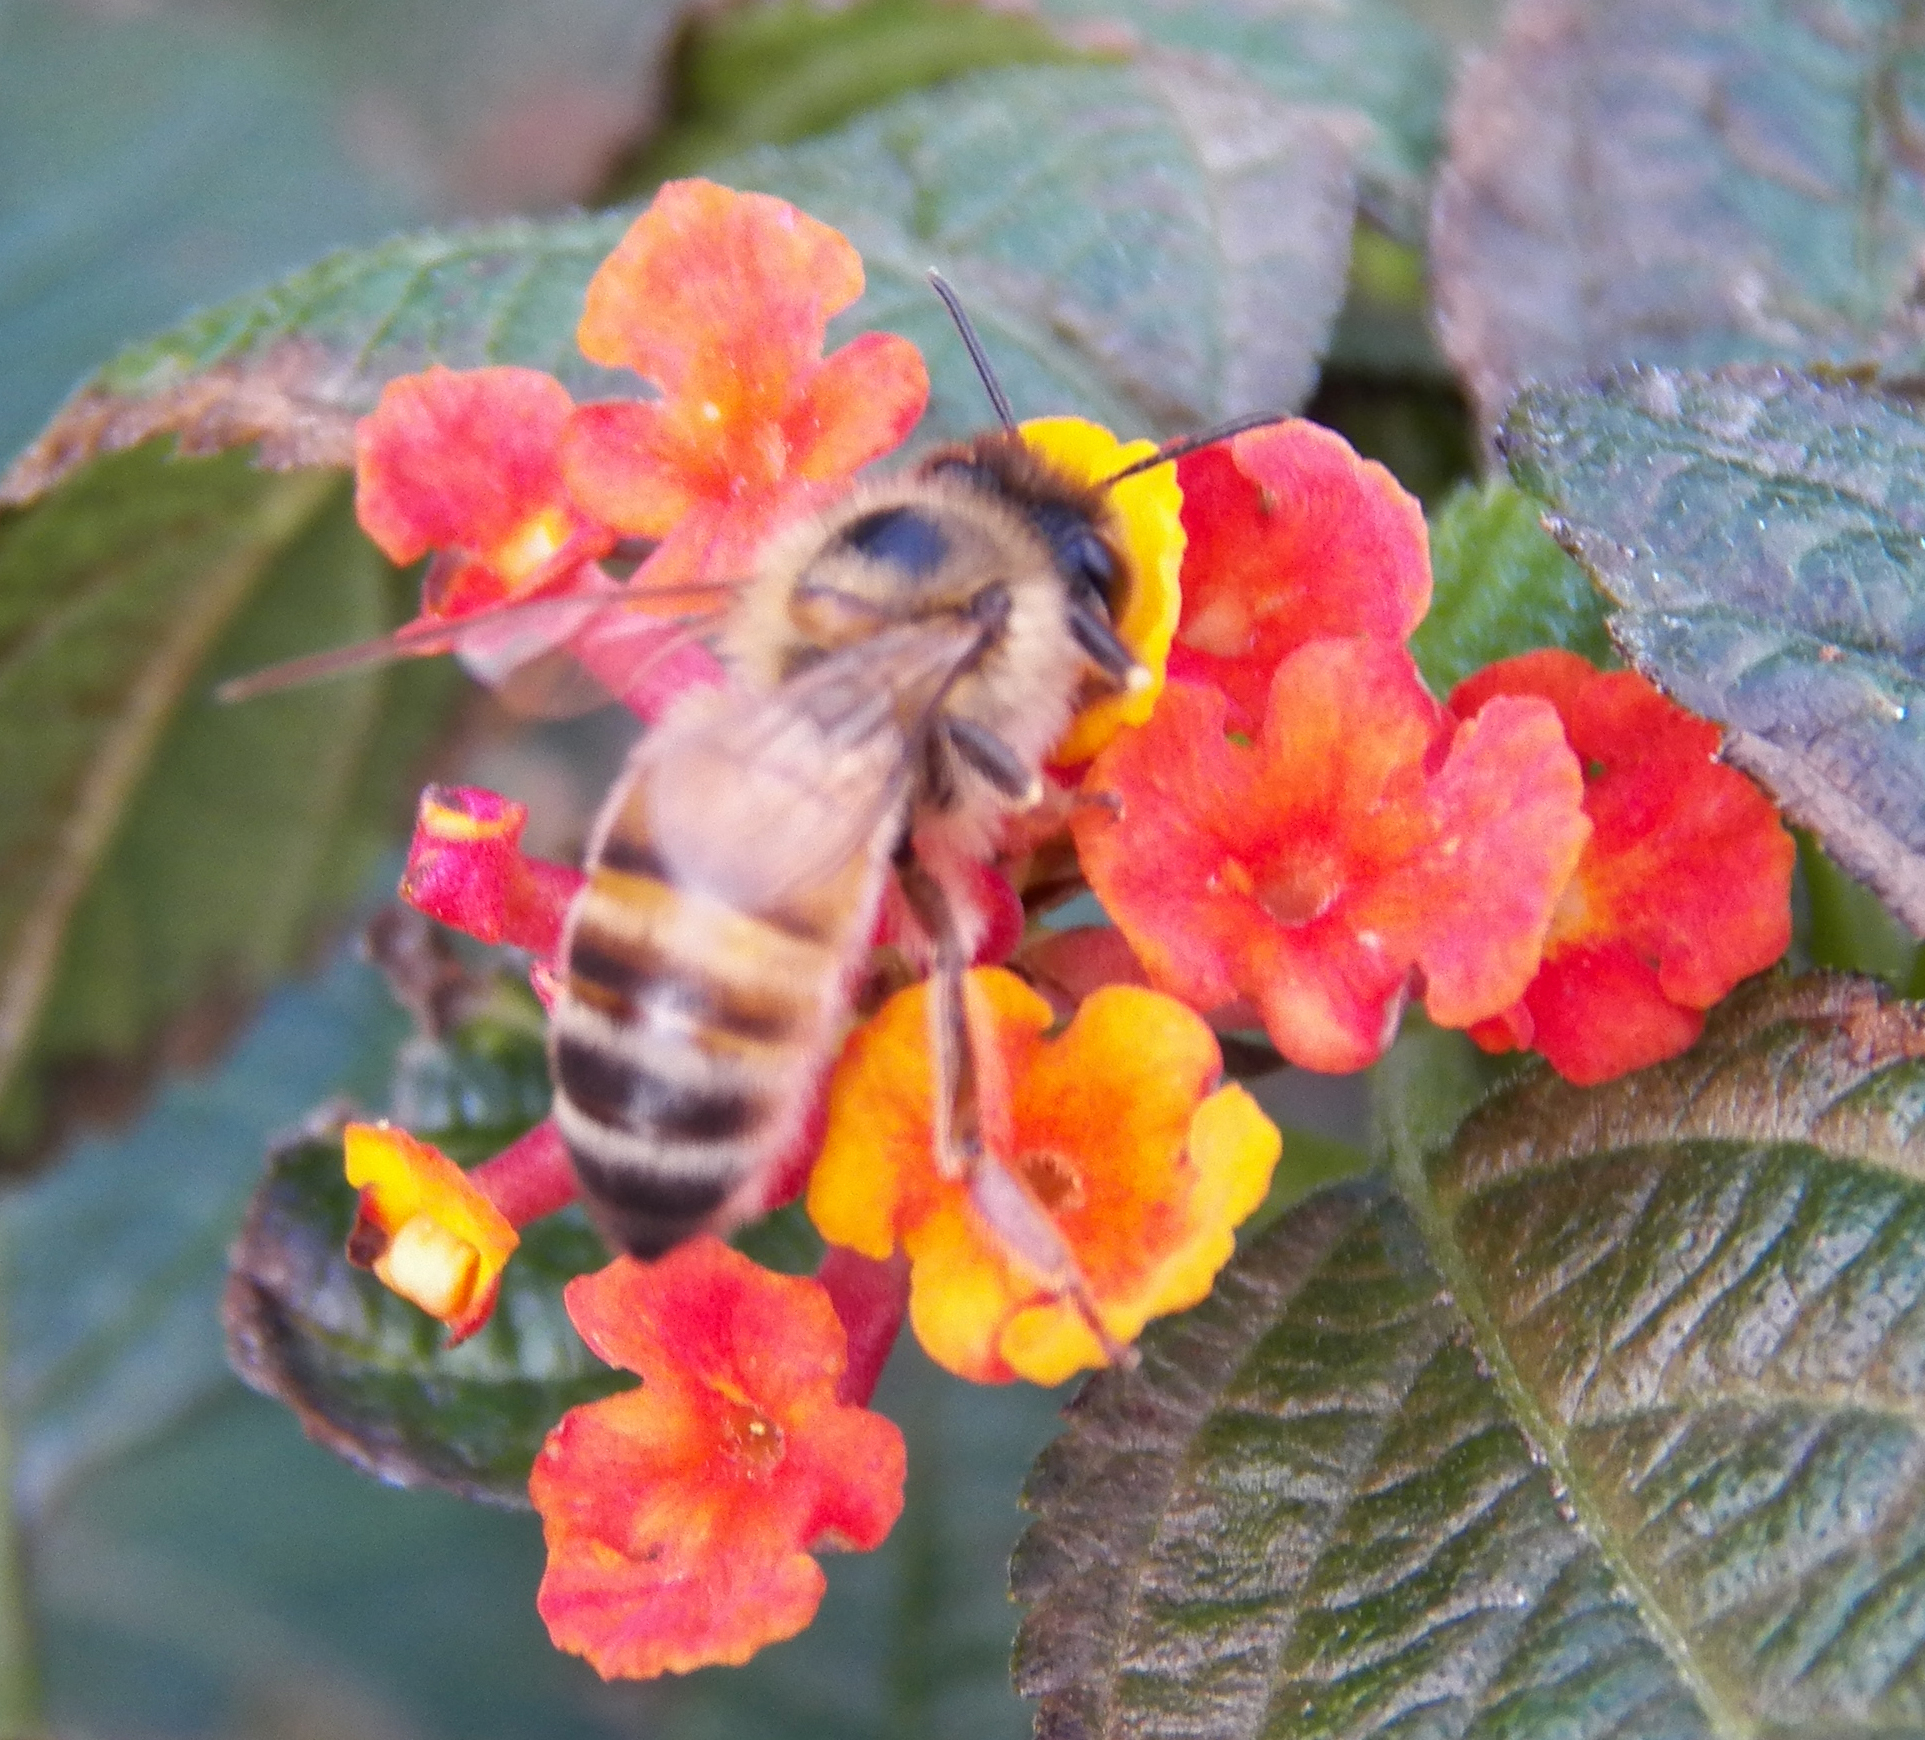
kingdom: Animalia
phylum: Arthropoda
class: Insecta
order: Hymenoptera
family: Apidae
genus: Apis
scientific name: Apis mellifera
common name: Honey bee
